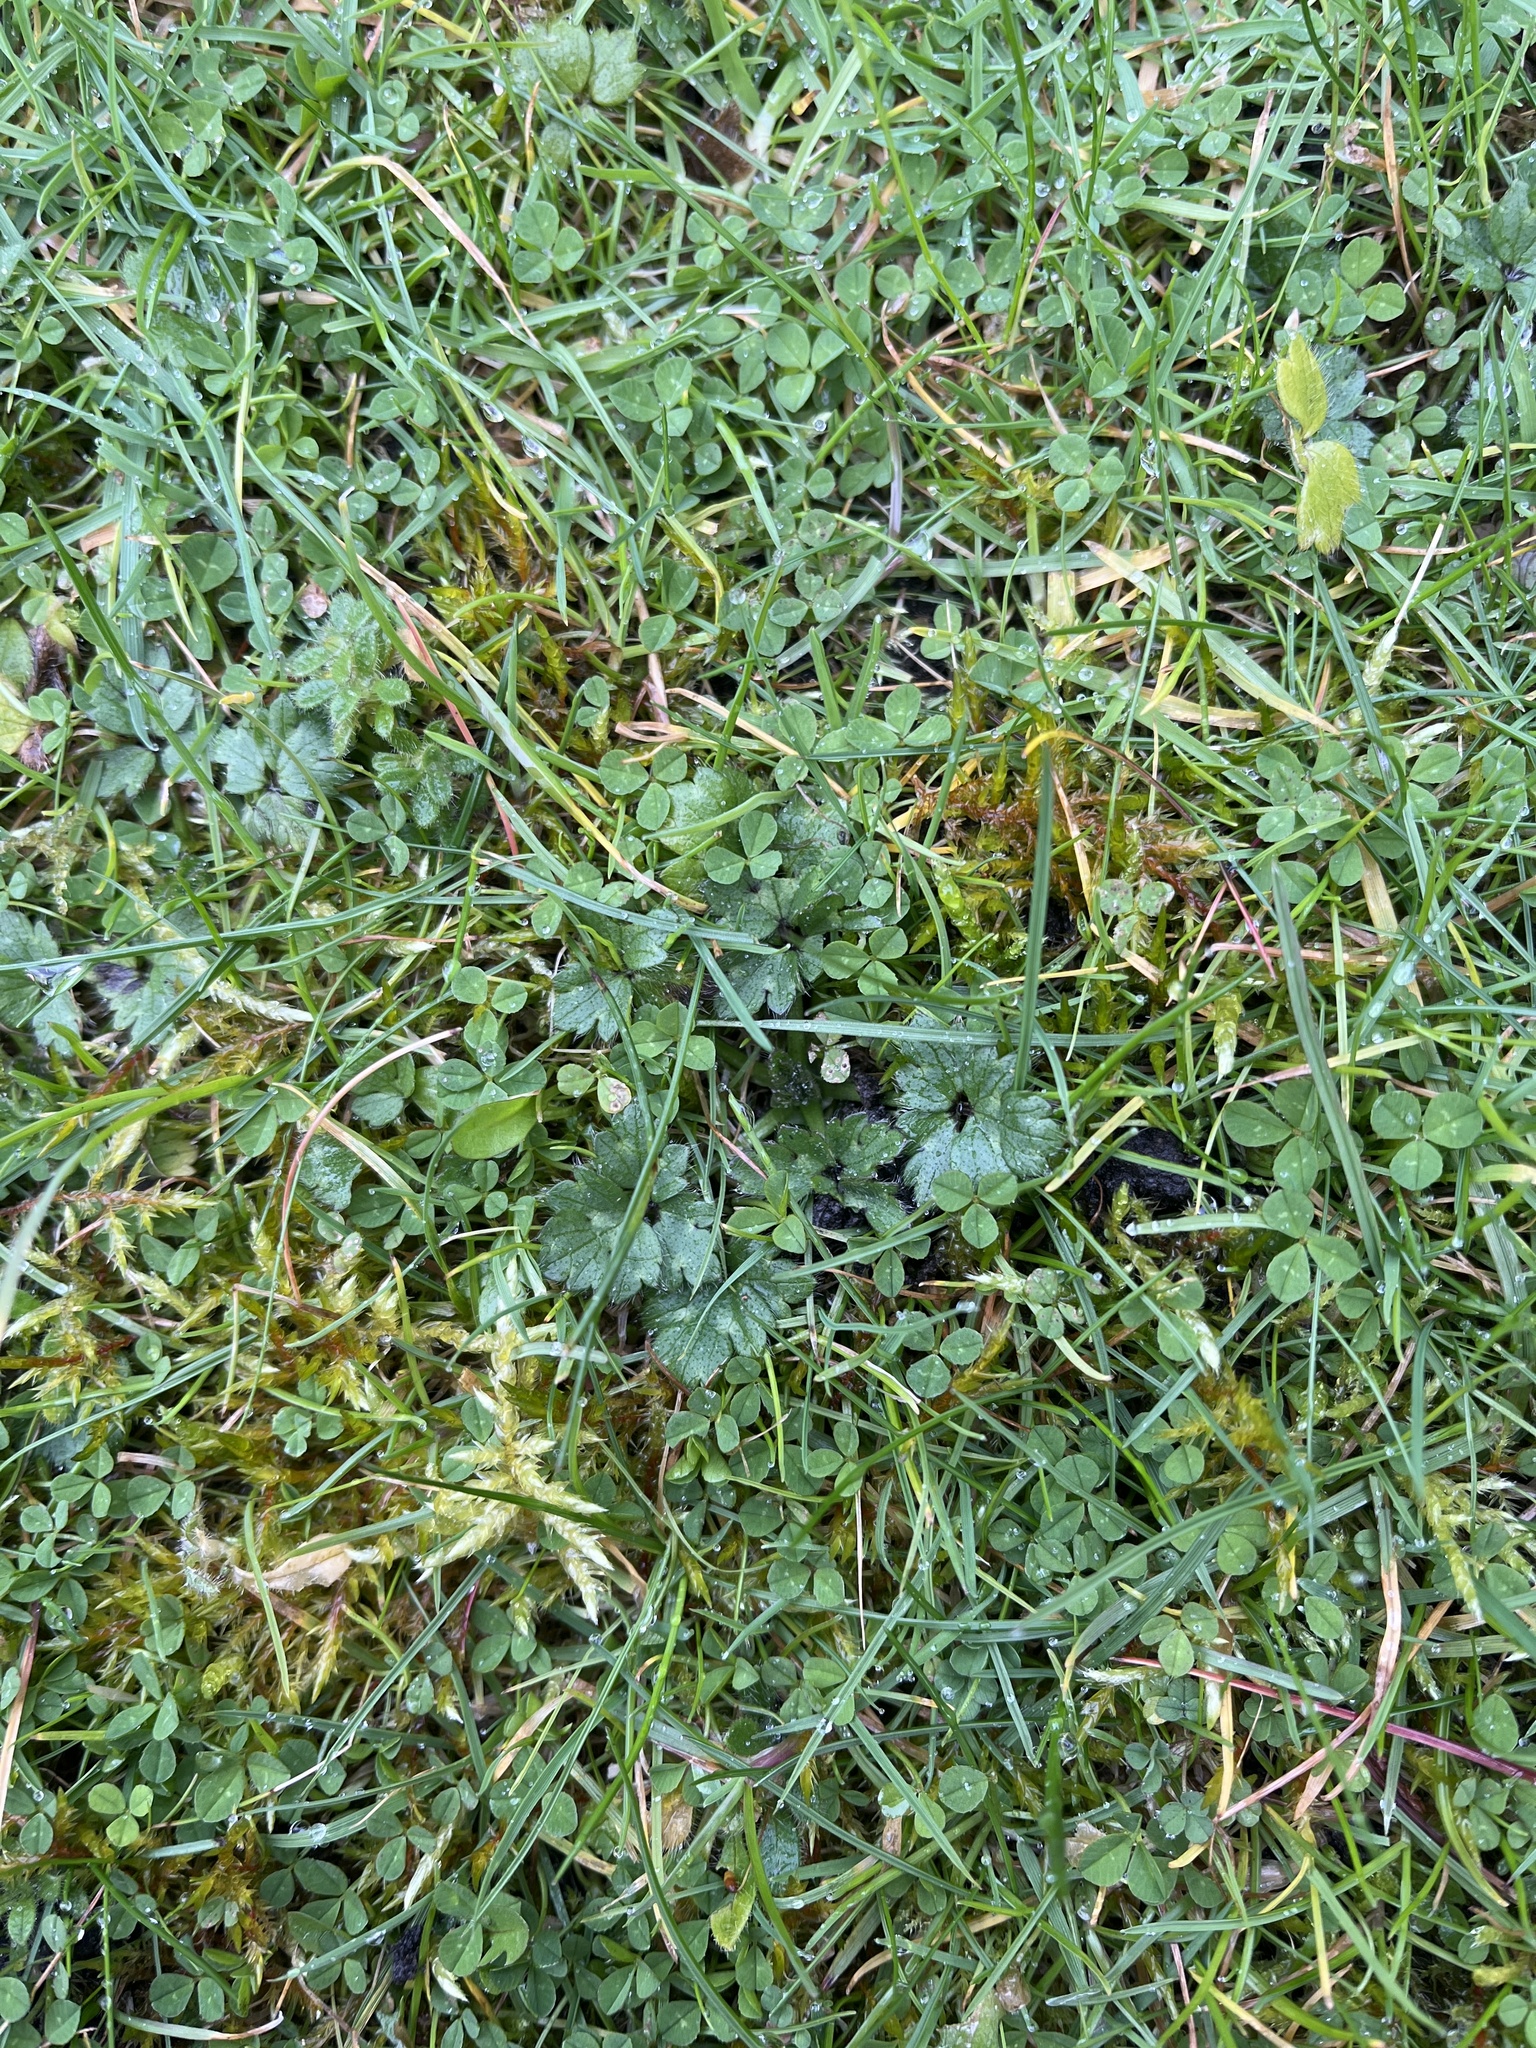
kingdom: Plantae
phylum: Tracheophyta
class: Magnoliopsida
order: Ranunculales
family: Ranunculaceae
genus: Ranunculus
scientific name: Ranunculus repens
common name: Creeping buttercup
